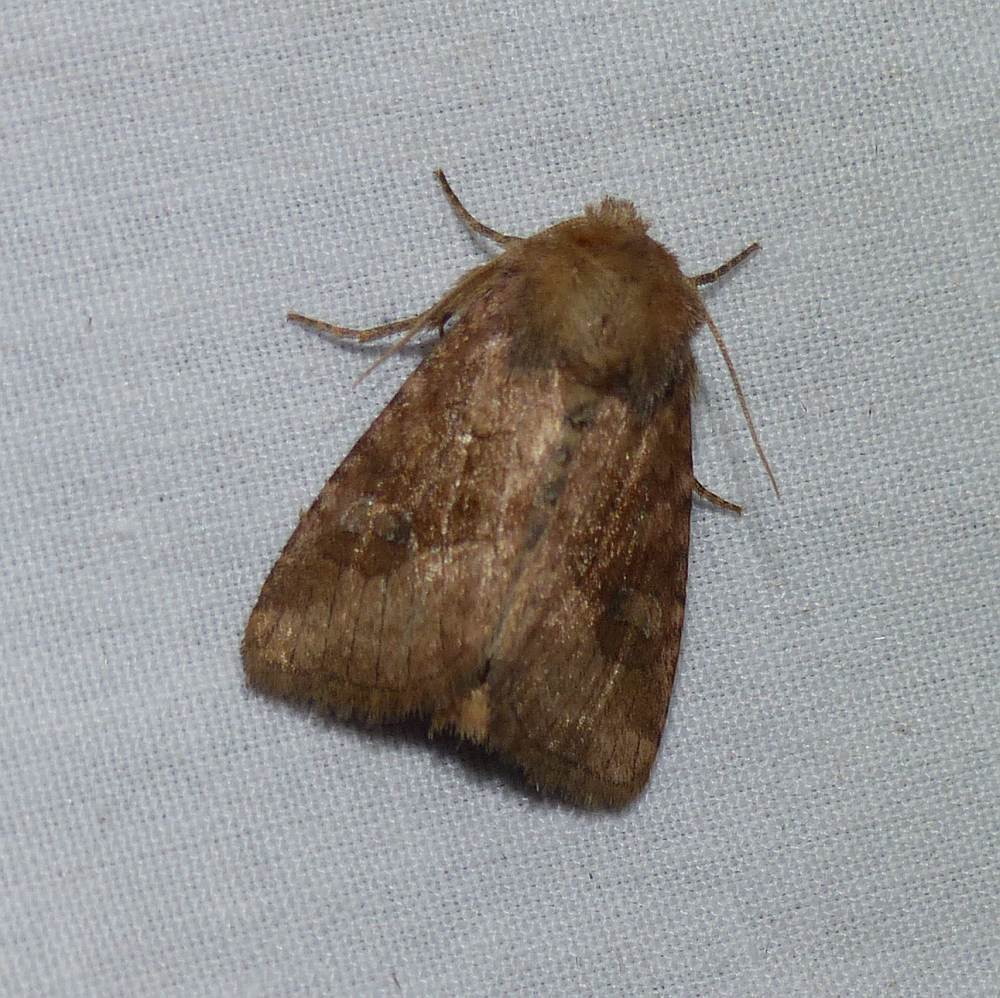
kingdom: Animalia
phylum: Arthropoda
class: Insecta
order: Lepidoptera
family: Noctuidae
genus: Lacinipolia
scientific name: Lacinipolia lorea
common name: Bridled arches moth
